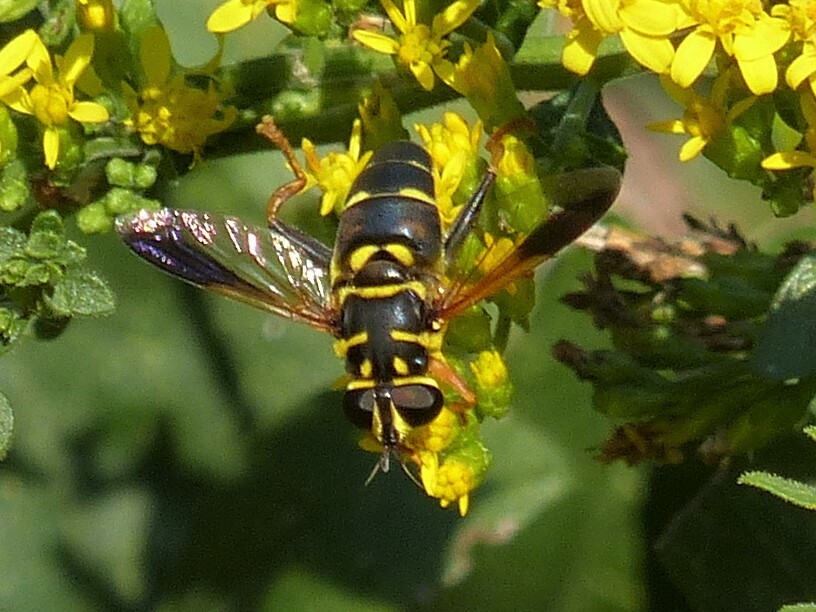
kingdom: Animalia
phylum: Arthropoda
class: Insecta
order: Diptera
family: Syrphidae
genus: Meromacrus
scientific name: Meromacrus acutus
